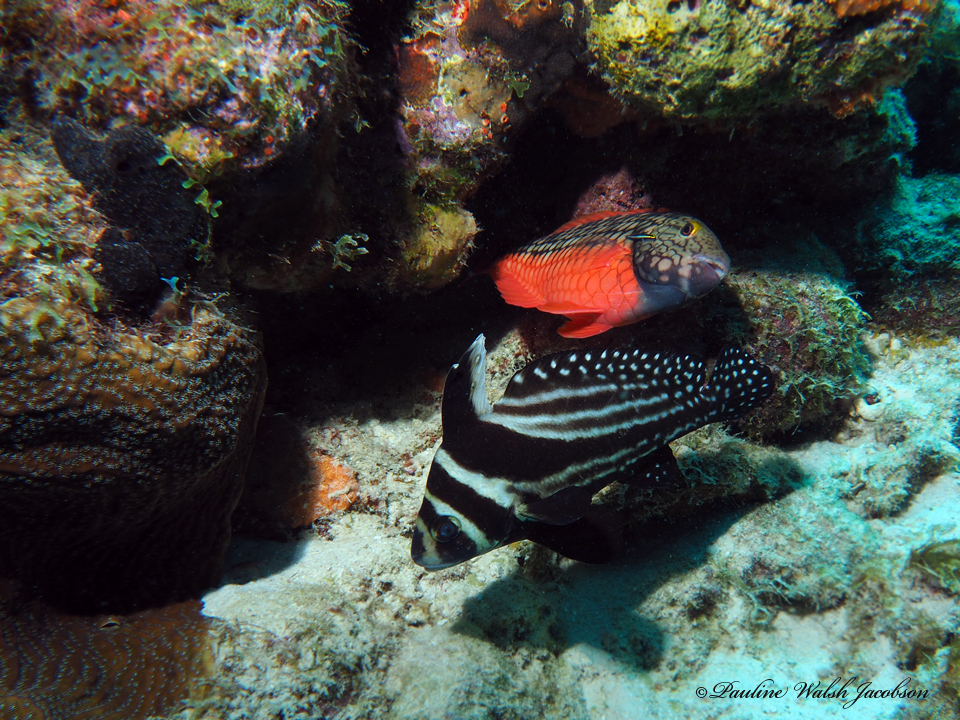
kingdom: Animalia
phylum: Chordata
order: Perciformes
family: Scaridae
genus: Sparisoma
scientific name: Sparisoma viride
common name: Stoplight parrotfish
